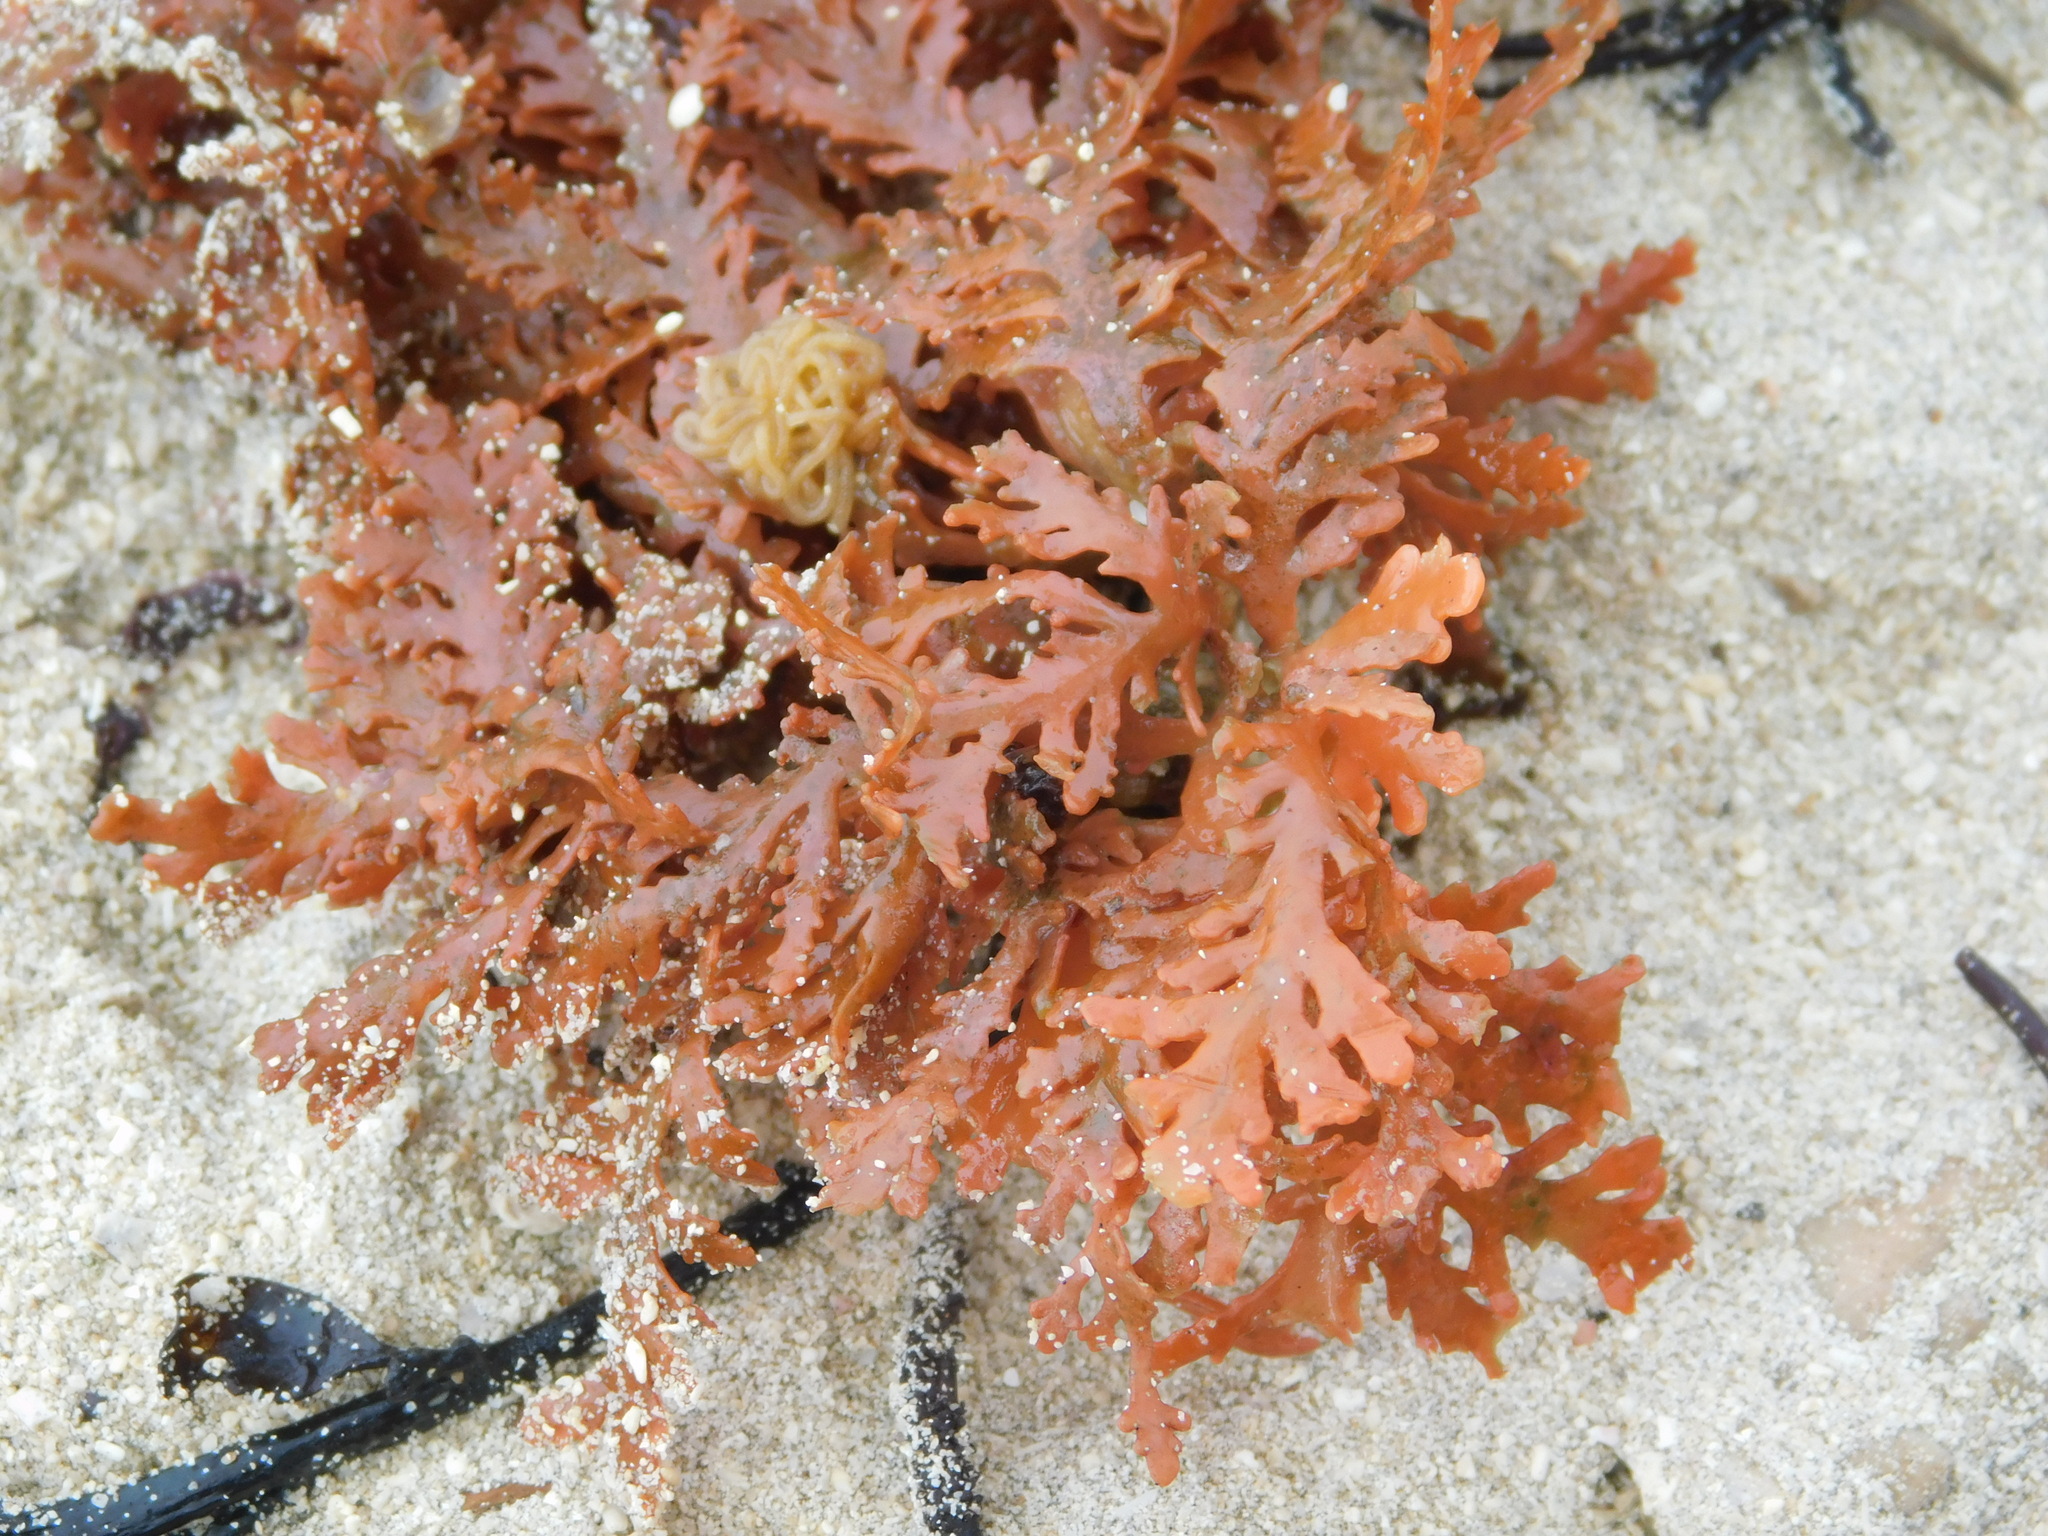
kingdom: Plantae
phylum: Rhodophyta
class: Florideophyceae
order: Ceramiales
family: Rhodomelaceae
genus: Laurencia
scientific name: Laurencia brongniartii
